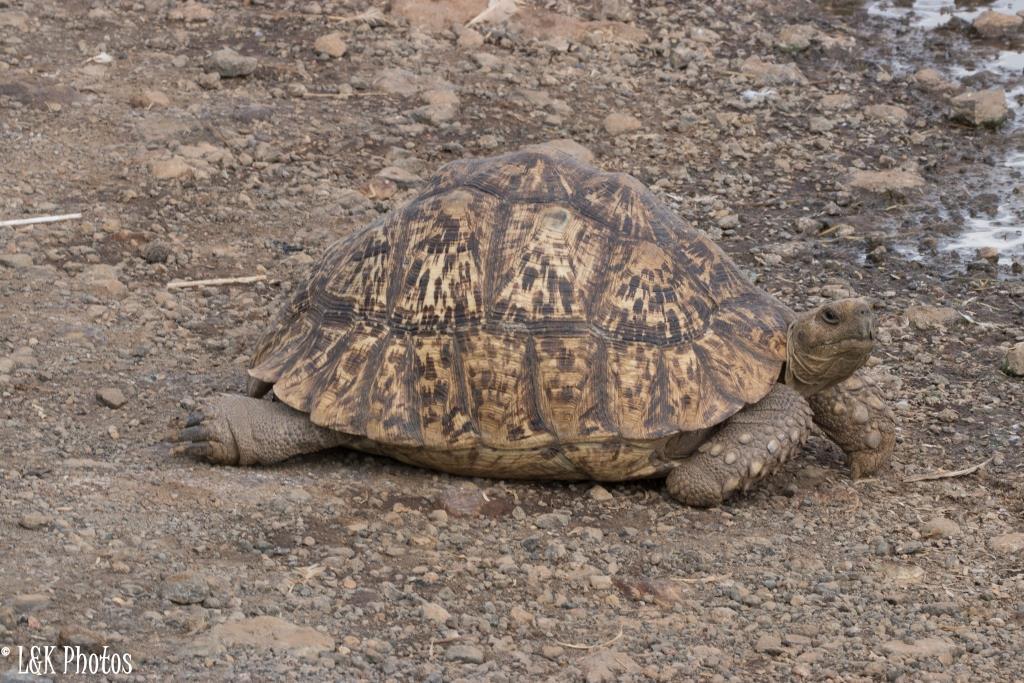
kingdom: Animalia
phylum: Chordata
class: Testudines
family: Testudinidae
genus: Stigmochelys
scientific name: Stigmochelys pardalis
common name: Leopard tortoise
